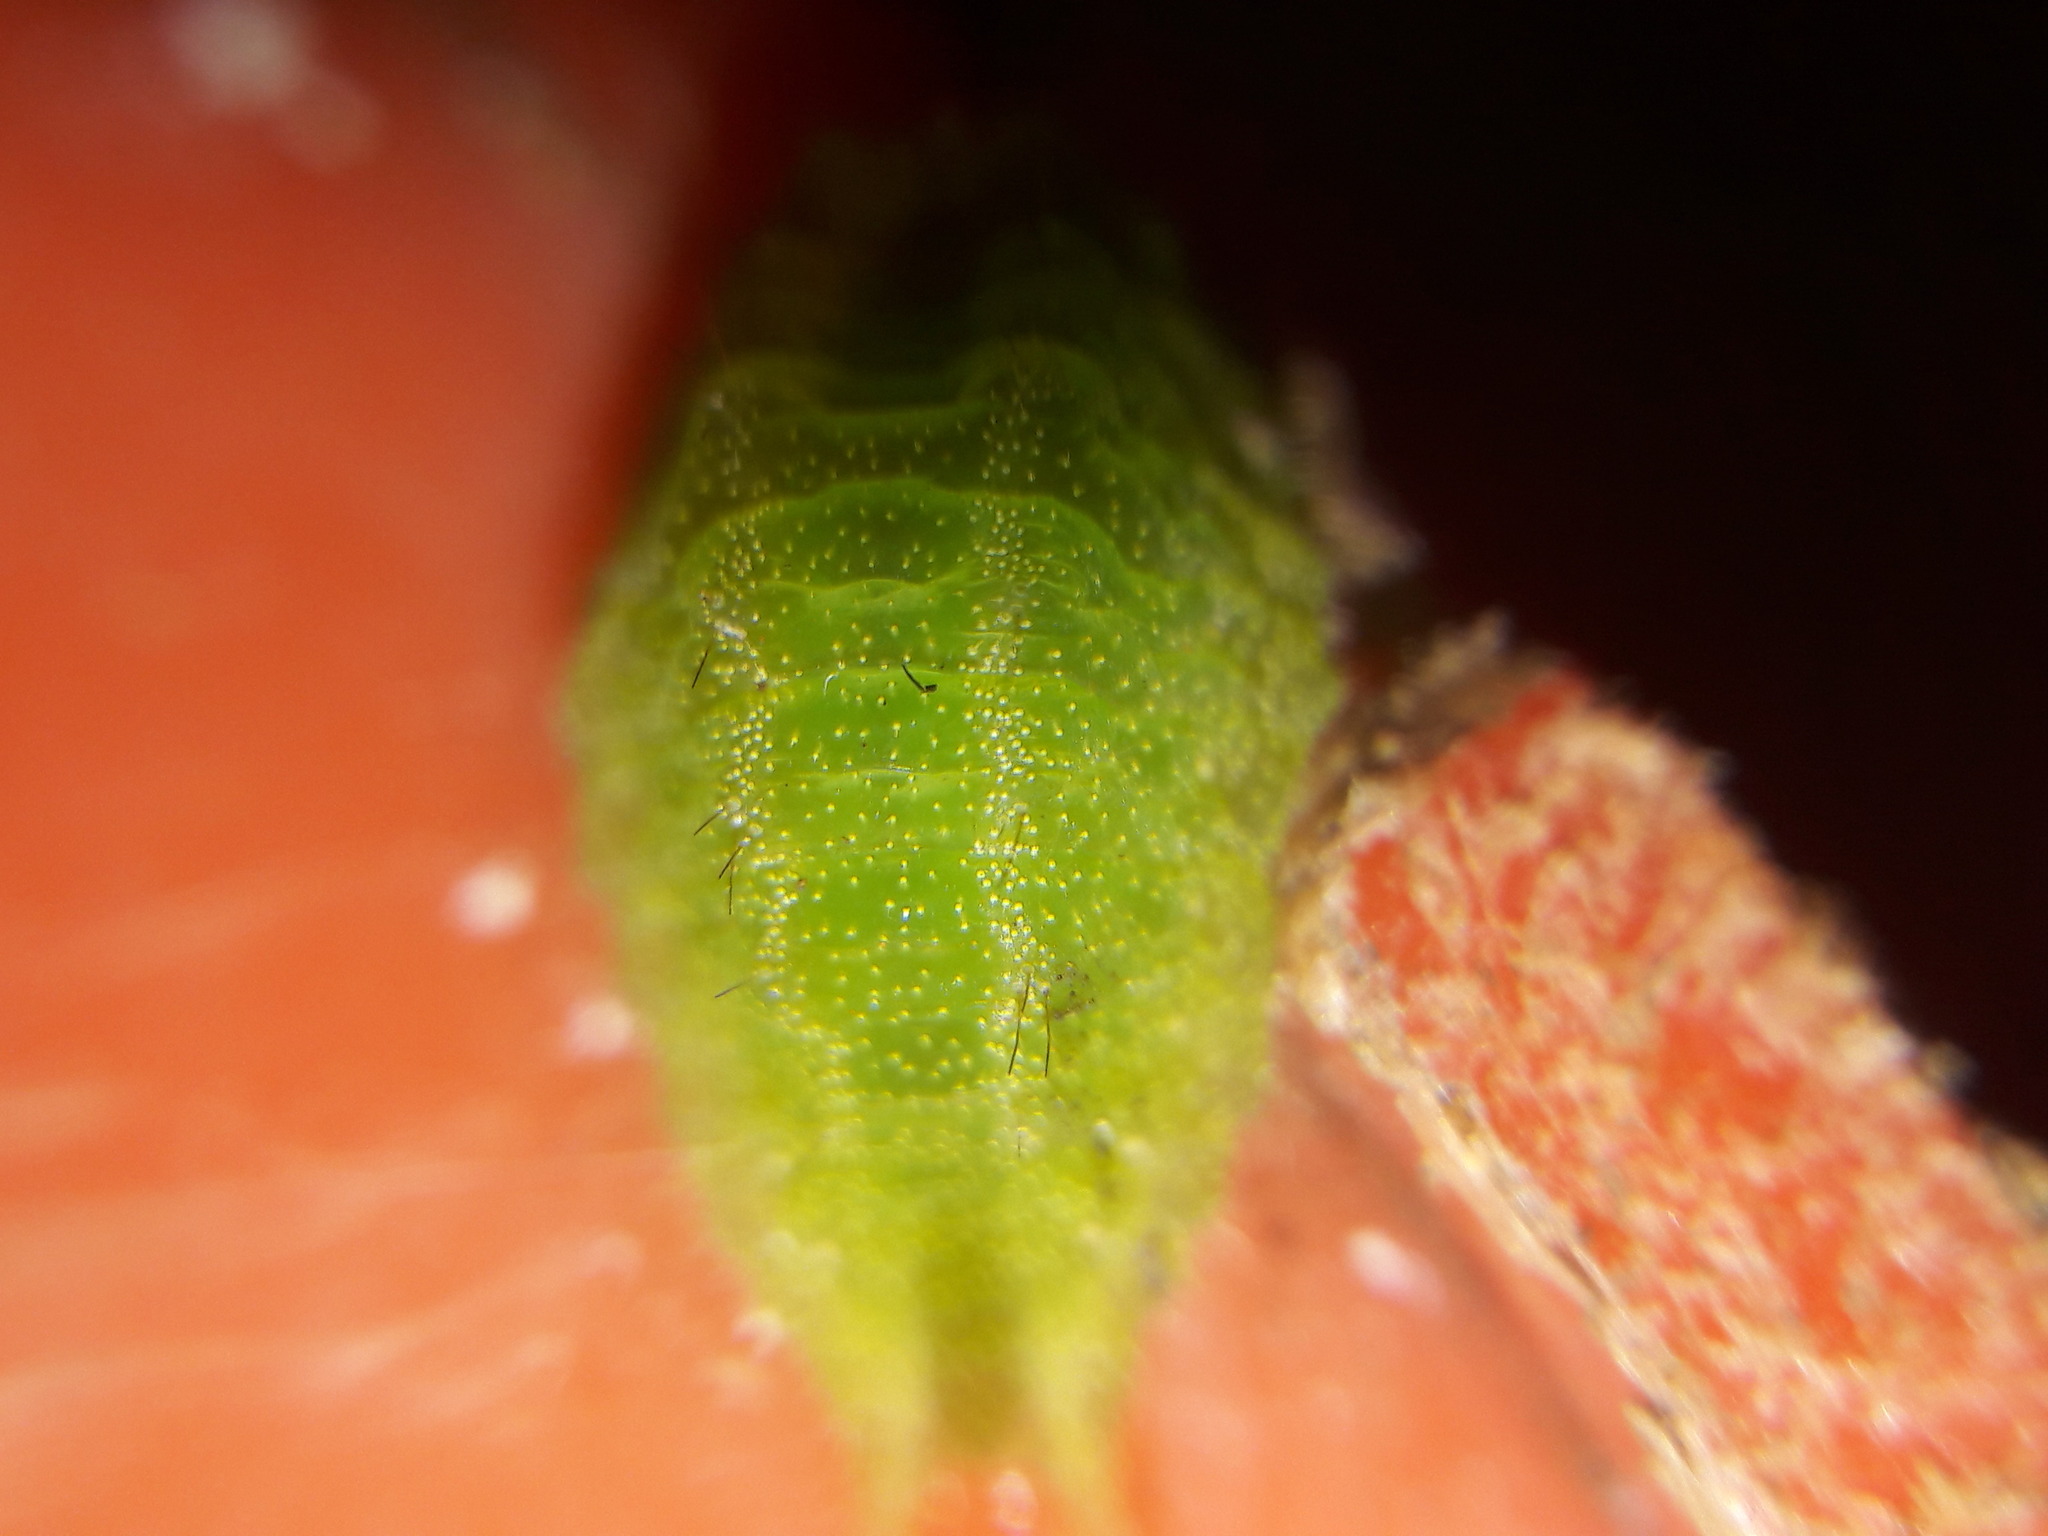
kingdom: Animalia
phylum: Arthropoda
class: Insecta
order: Lepidoptera
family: Lycaenidae
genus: Rekoa
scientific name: Rekoa meton
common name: Meton hairstreak
